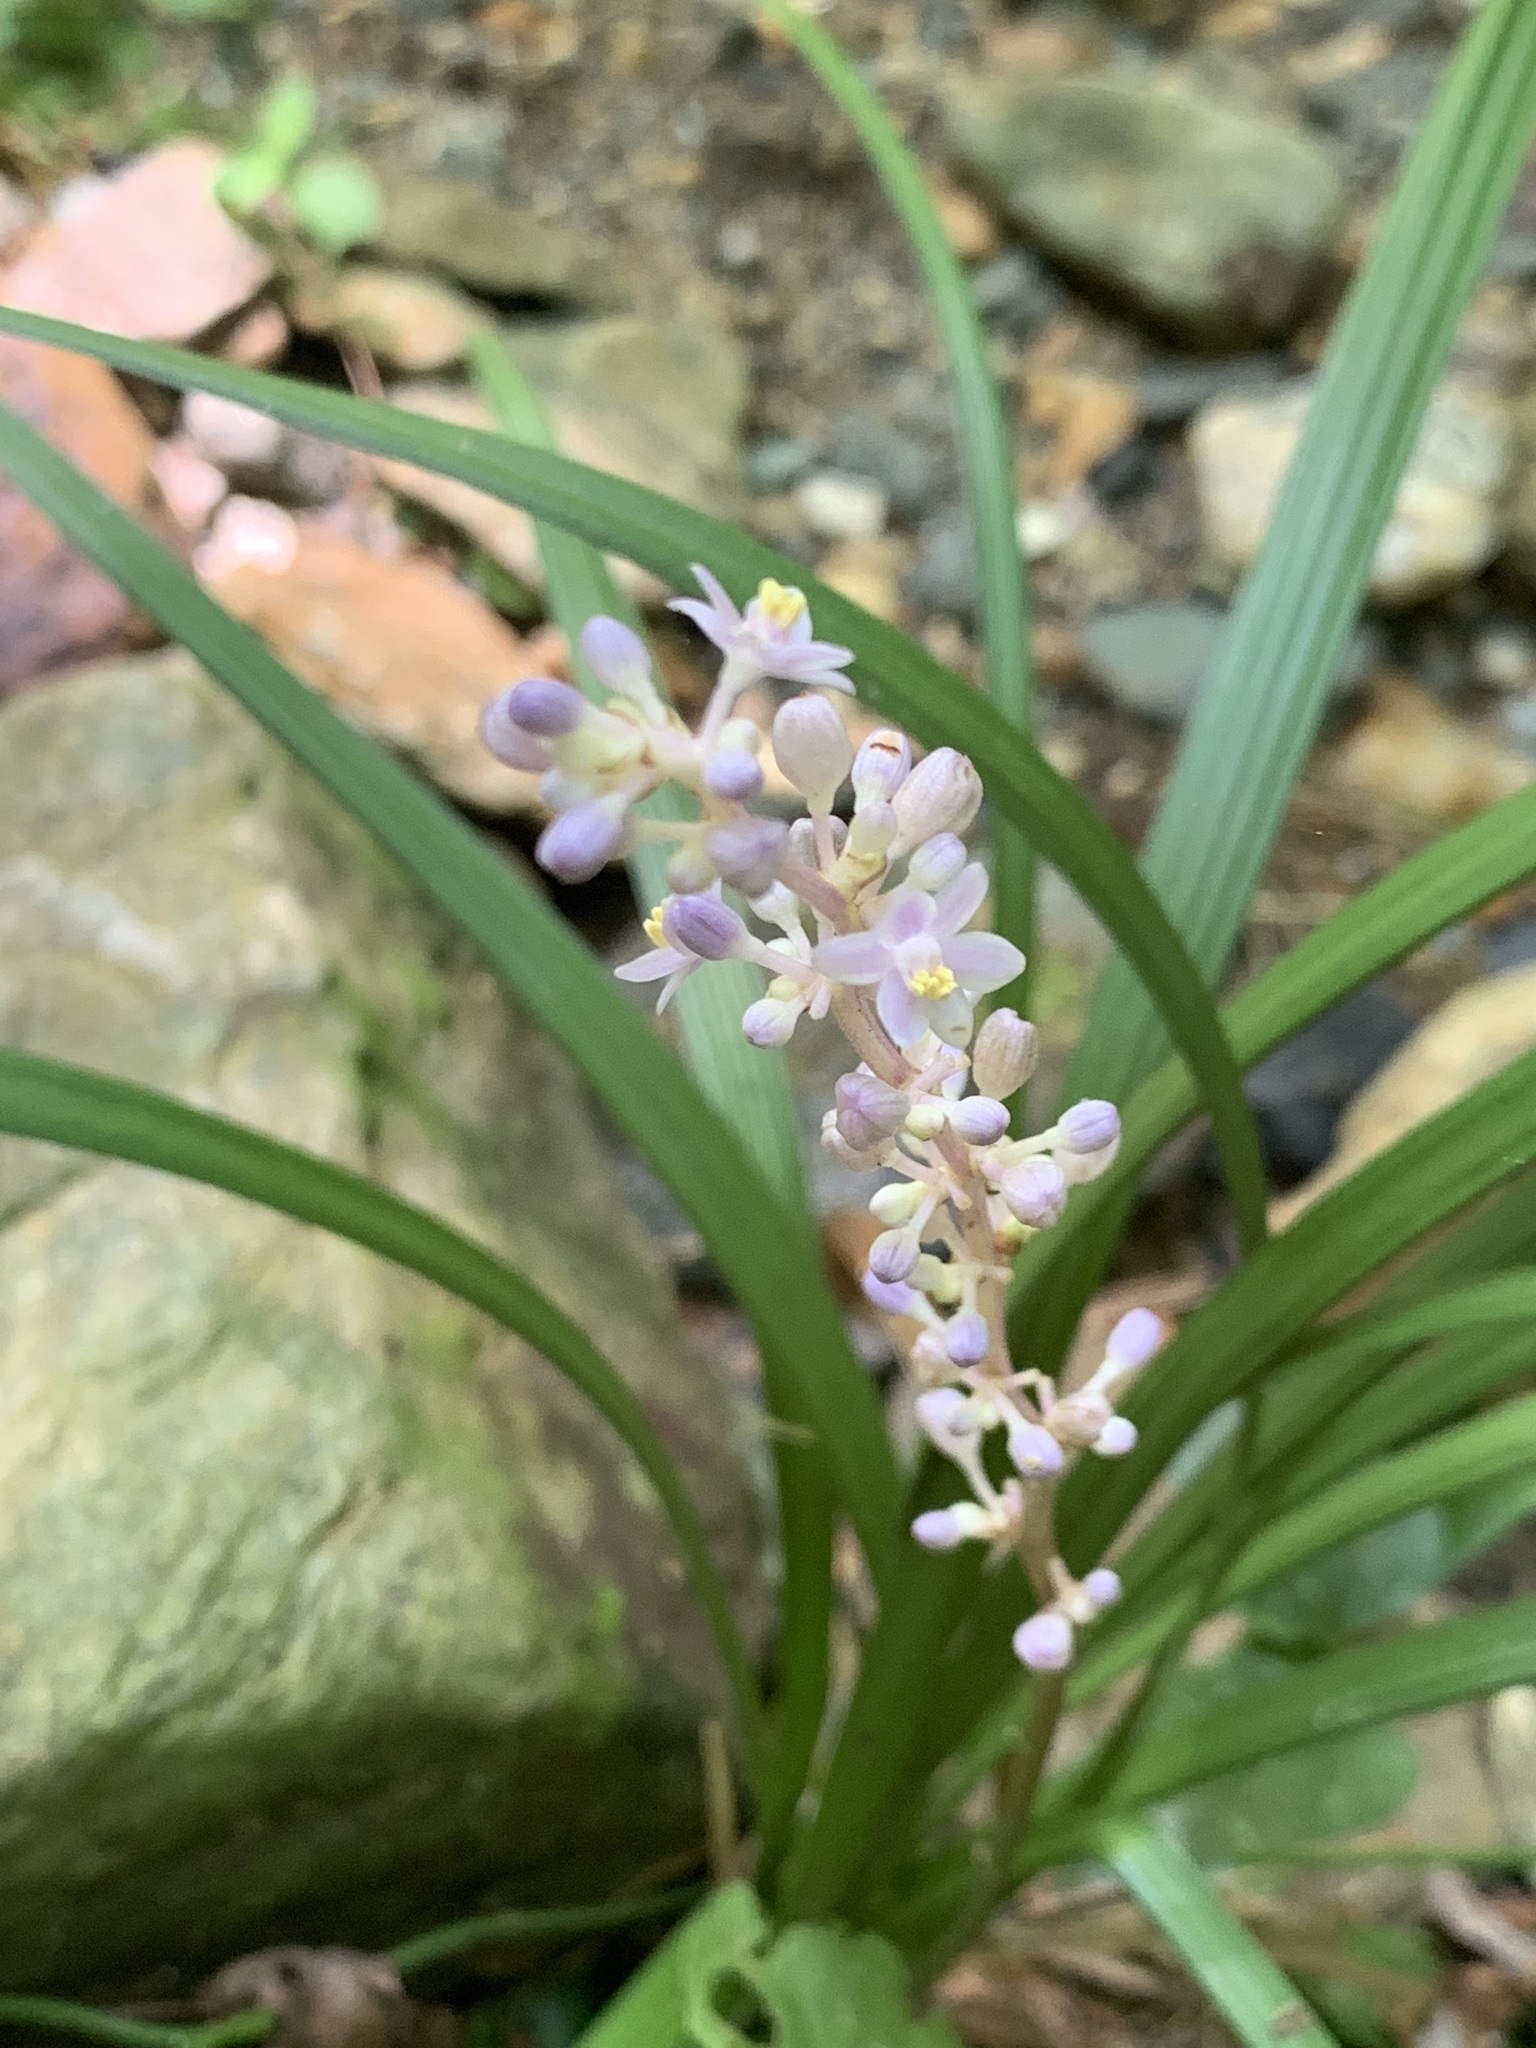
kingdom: Plantae
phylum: Tracheophyta
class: Liliopsida
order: Asparagales
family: Asparagaceae
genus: Liriope
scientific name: Liriope spicata
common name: Creeping liriope
